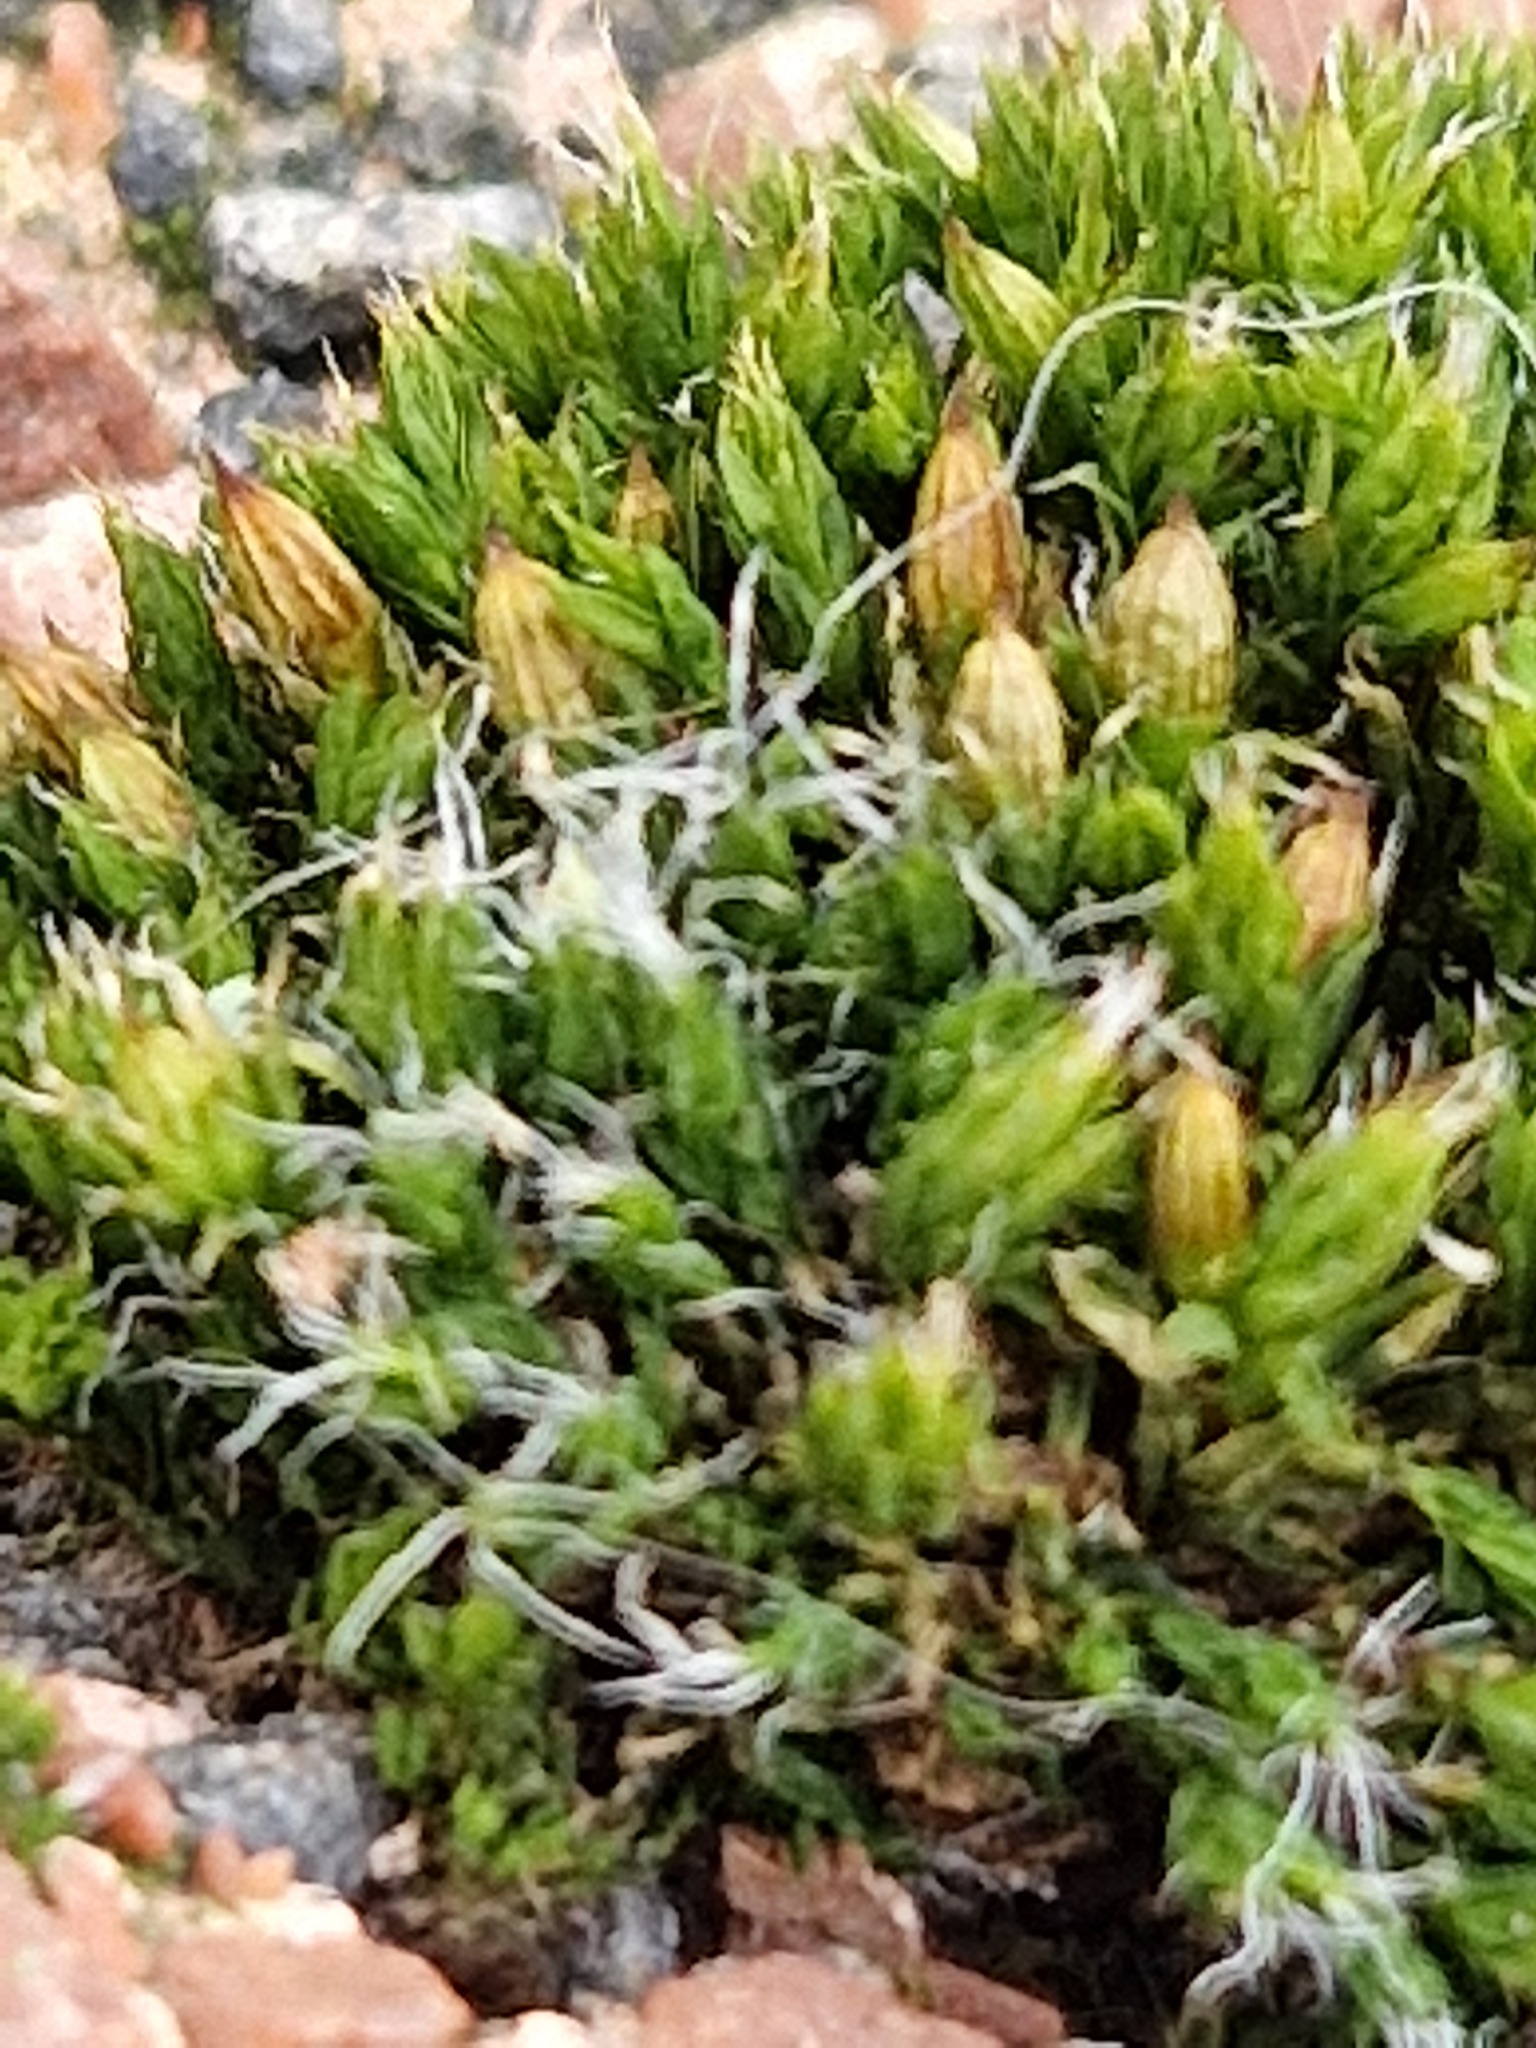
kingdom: Plantae
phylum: Bryophyta
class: Bryopsida
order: Orthotrichales
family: Orthotrichaceae
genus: Orthotrichum
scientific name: Orthotrichum diaphanum
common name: White-tipped bristle-moss
